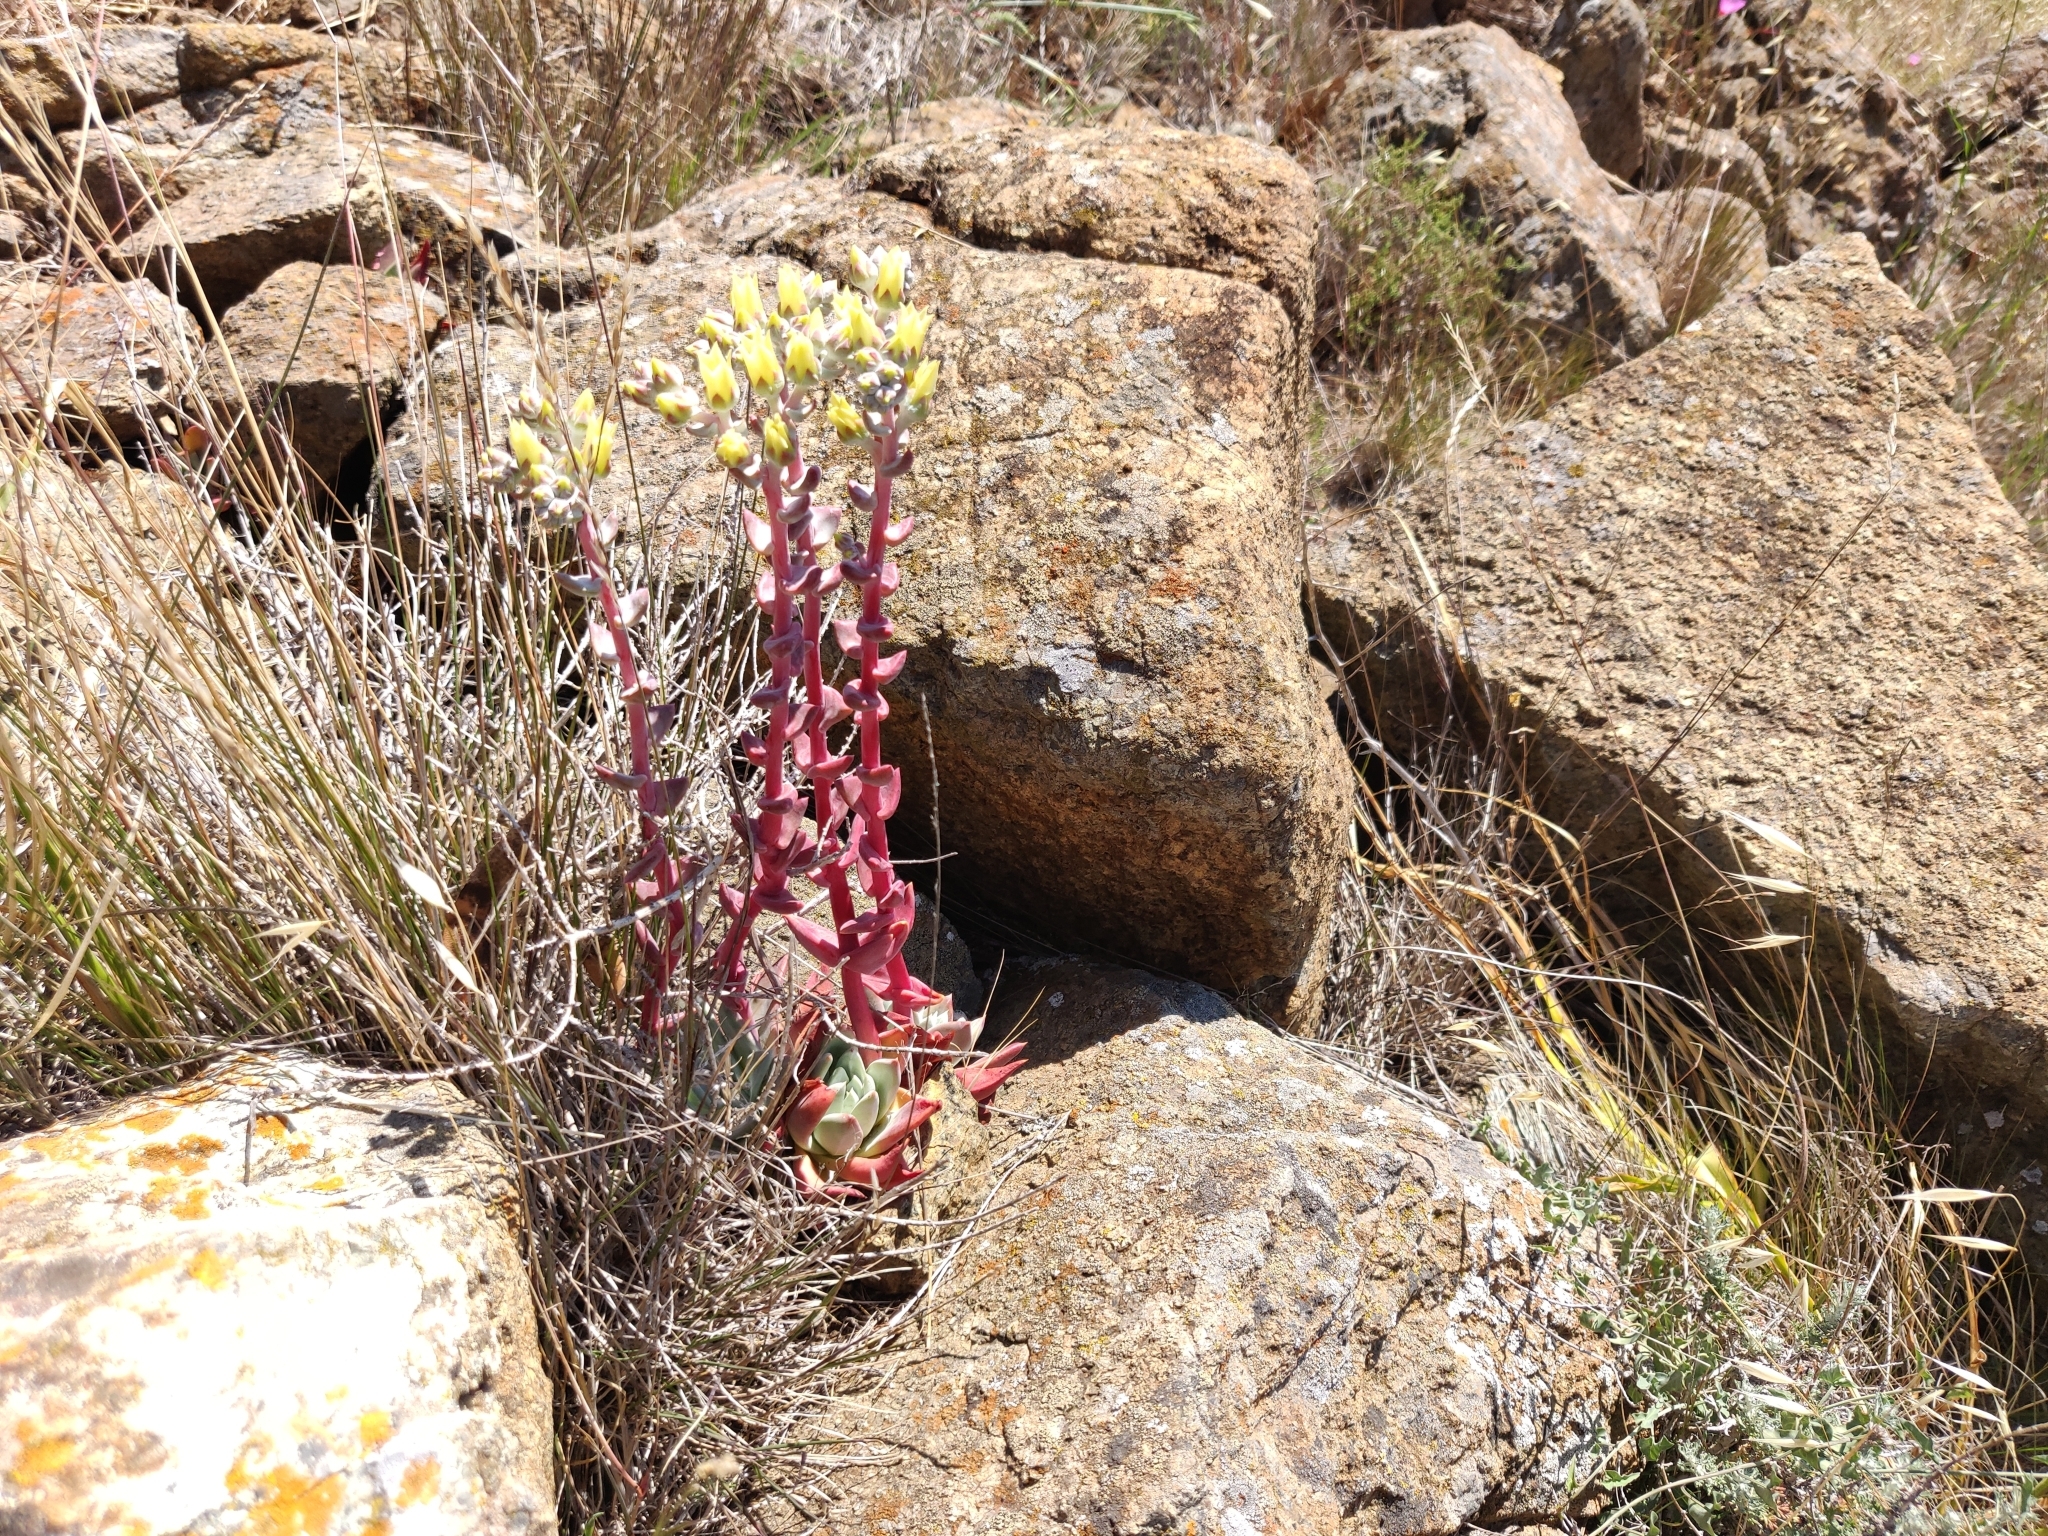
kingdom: Plantae
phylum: Tracheophyta
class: Magnoliopsida
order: Saxifragales
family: Crassulaceae
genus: Dudleya
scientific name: Dudleya farinosa
